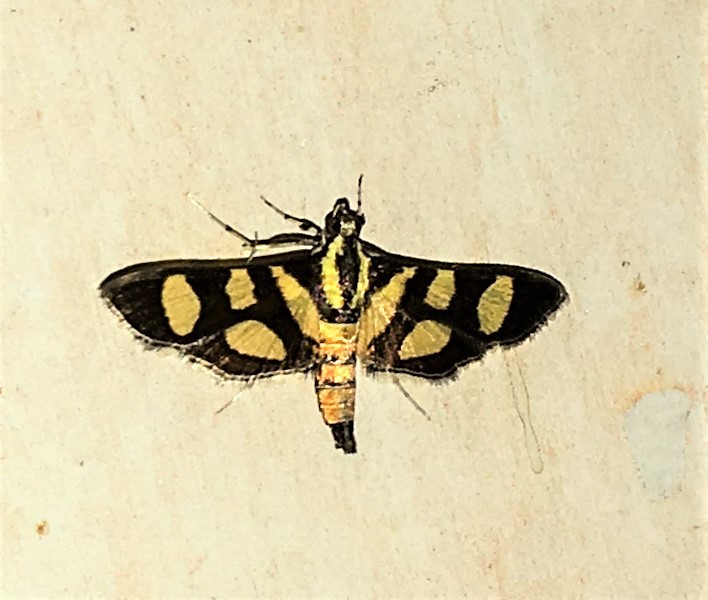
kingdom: Animalia
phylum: Arthropoda
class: Insecta
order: Lepidoptera
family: Crambidae
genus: Syngamia
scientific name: Syngamia florella
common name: Orange-spotted flower moth
